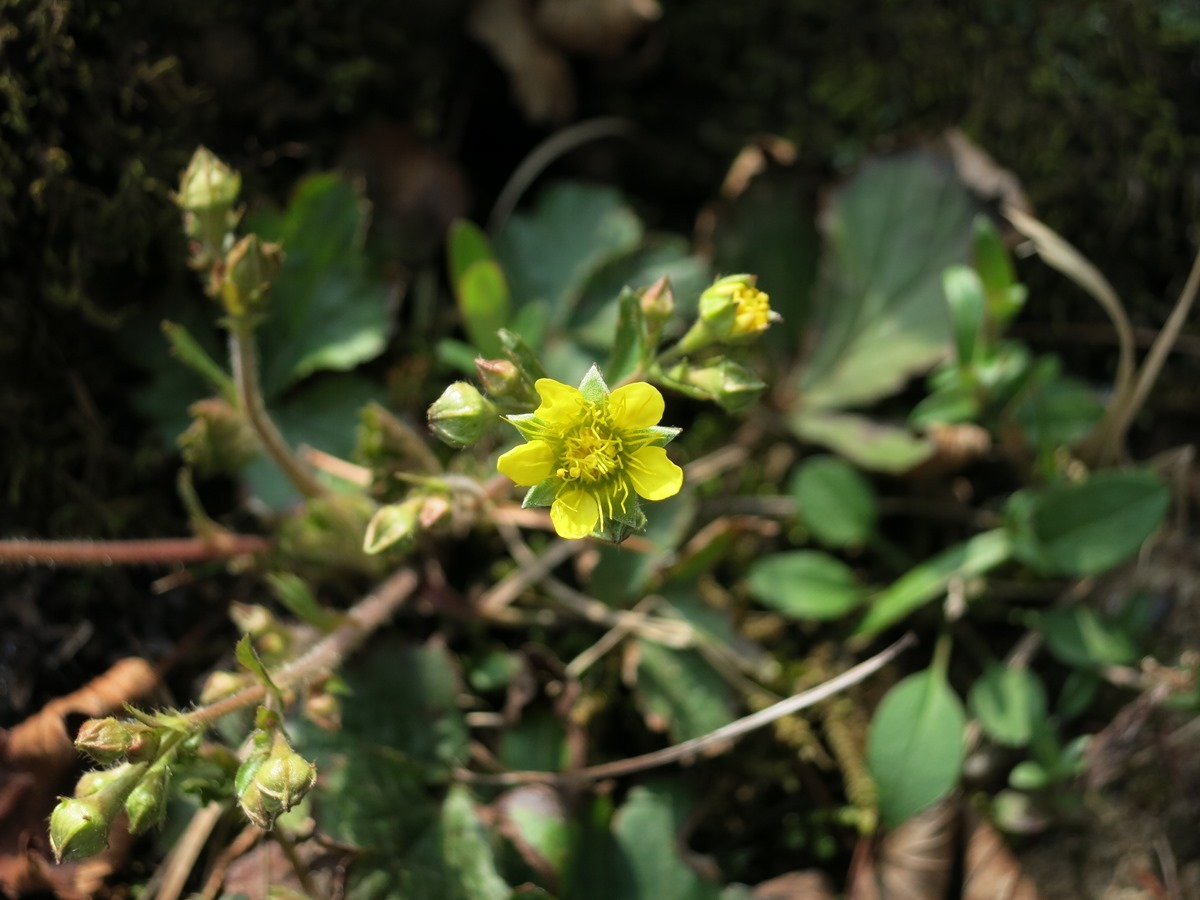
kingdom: Plantae
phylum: Tracheophyta
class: Magnoliopsida
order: Rosales
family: Rosaceae
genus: Geum
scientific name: Geum fragarioides
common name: Appalachian barren strawberry
